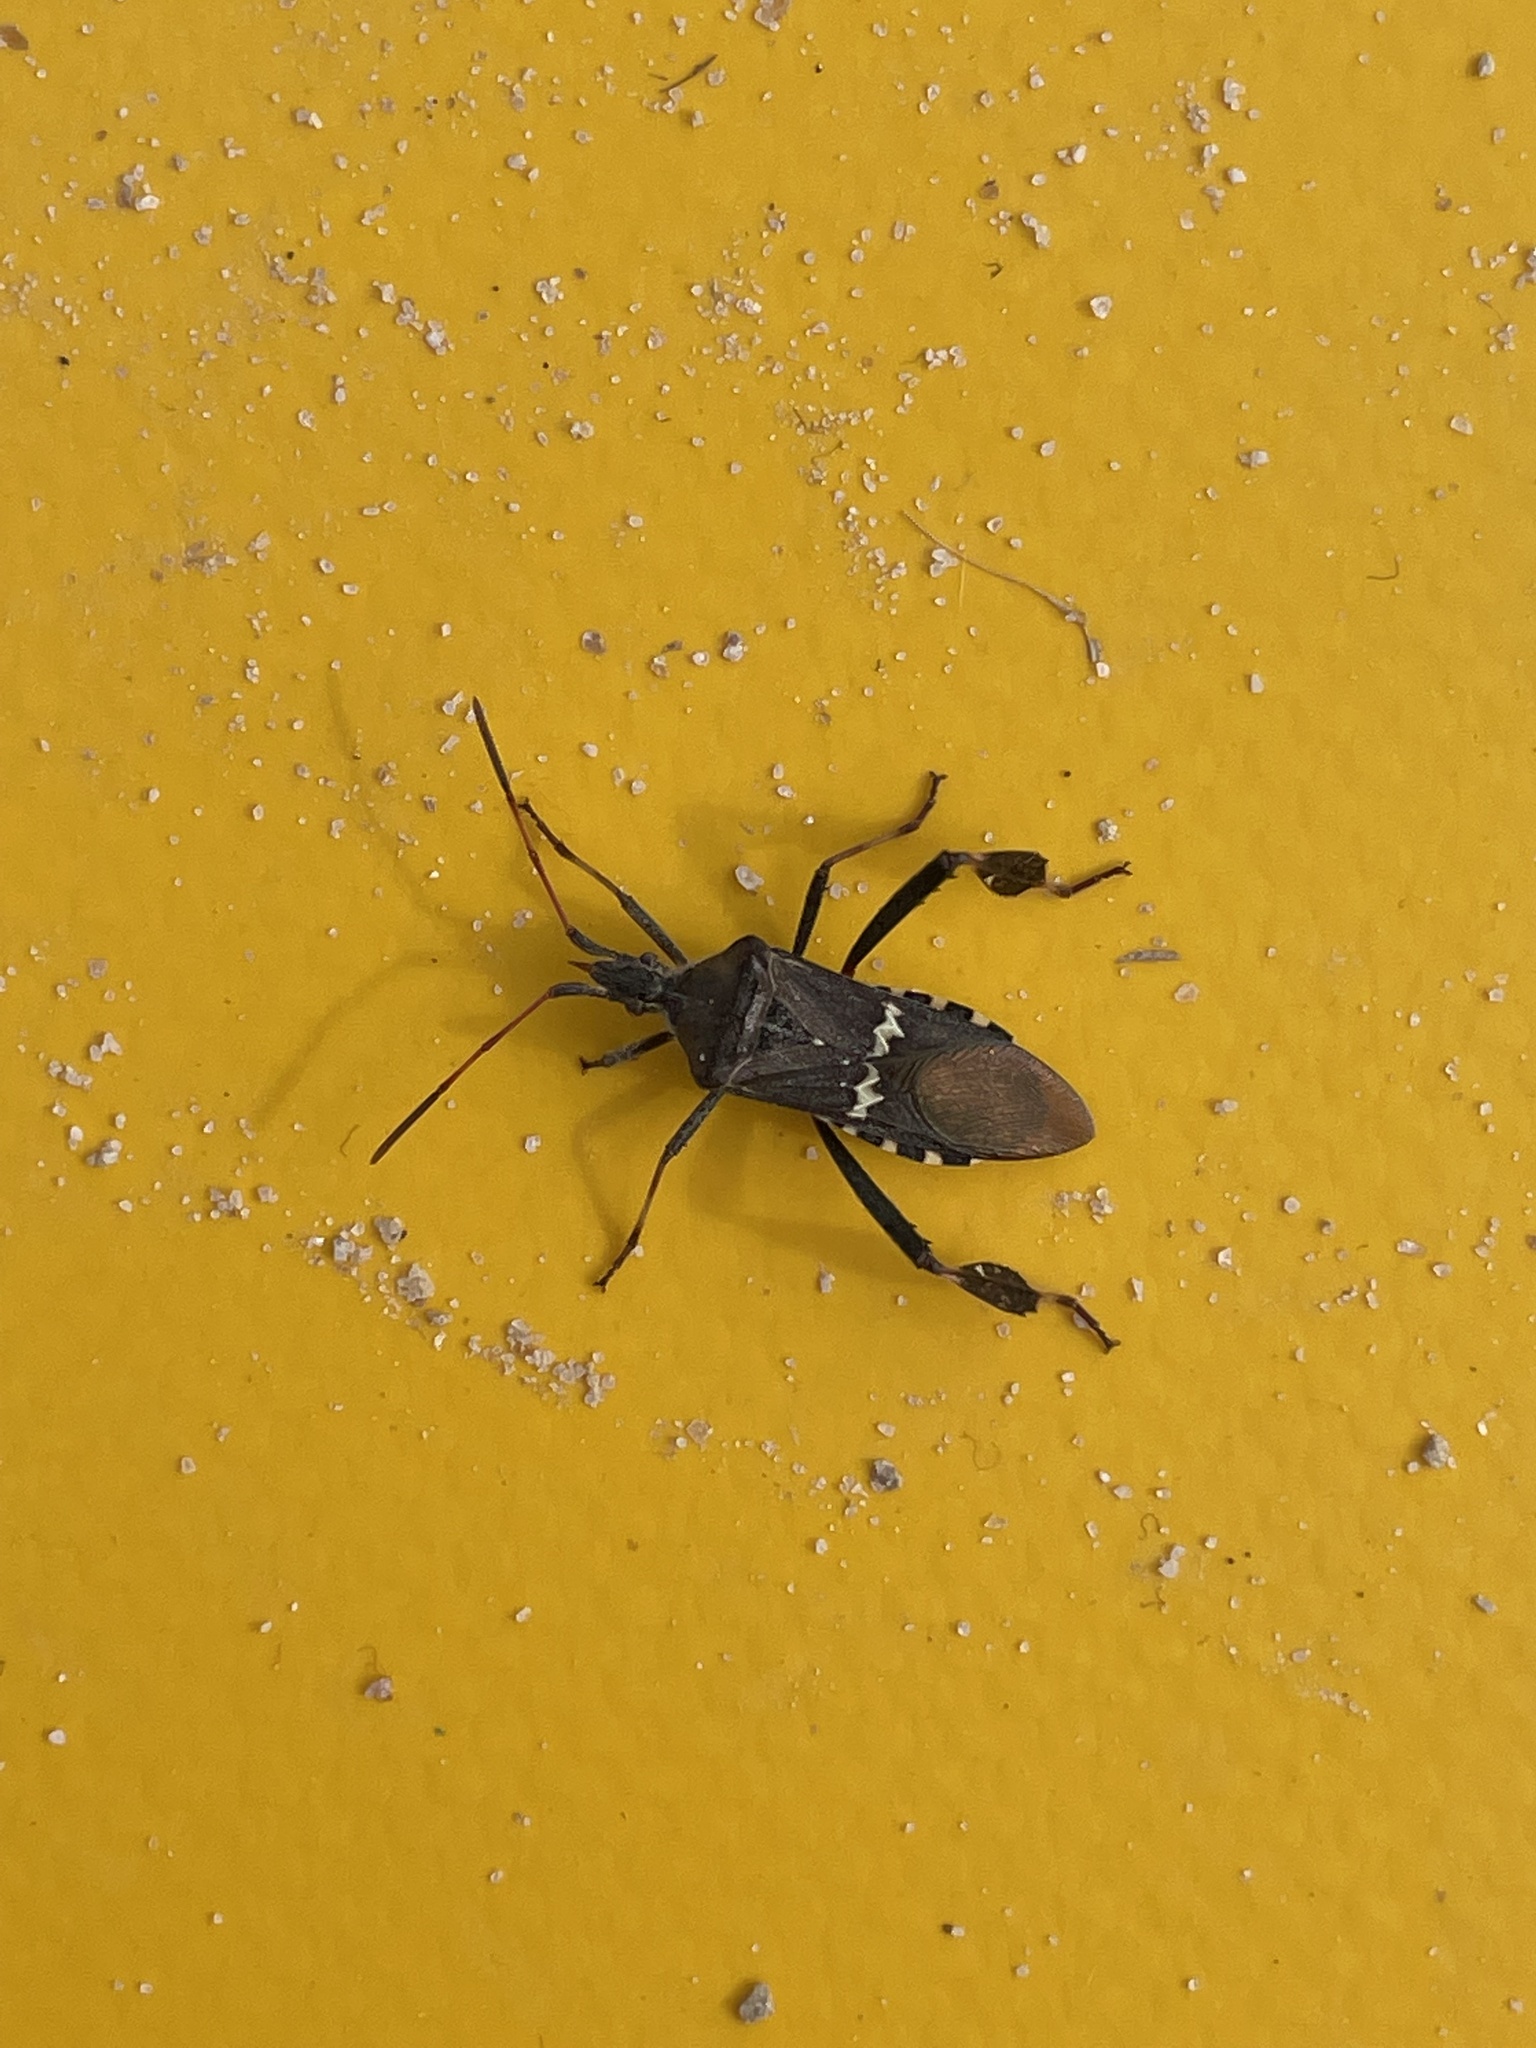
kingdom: Animalia
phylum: Arthropoda
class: Insecta
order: Hemiptera
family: Coreidae
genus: Leptoglossus
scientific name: Leptoglossus clypealis
